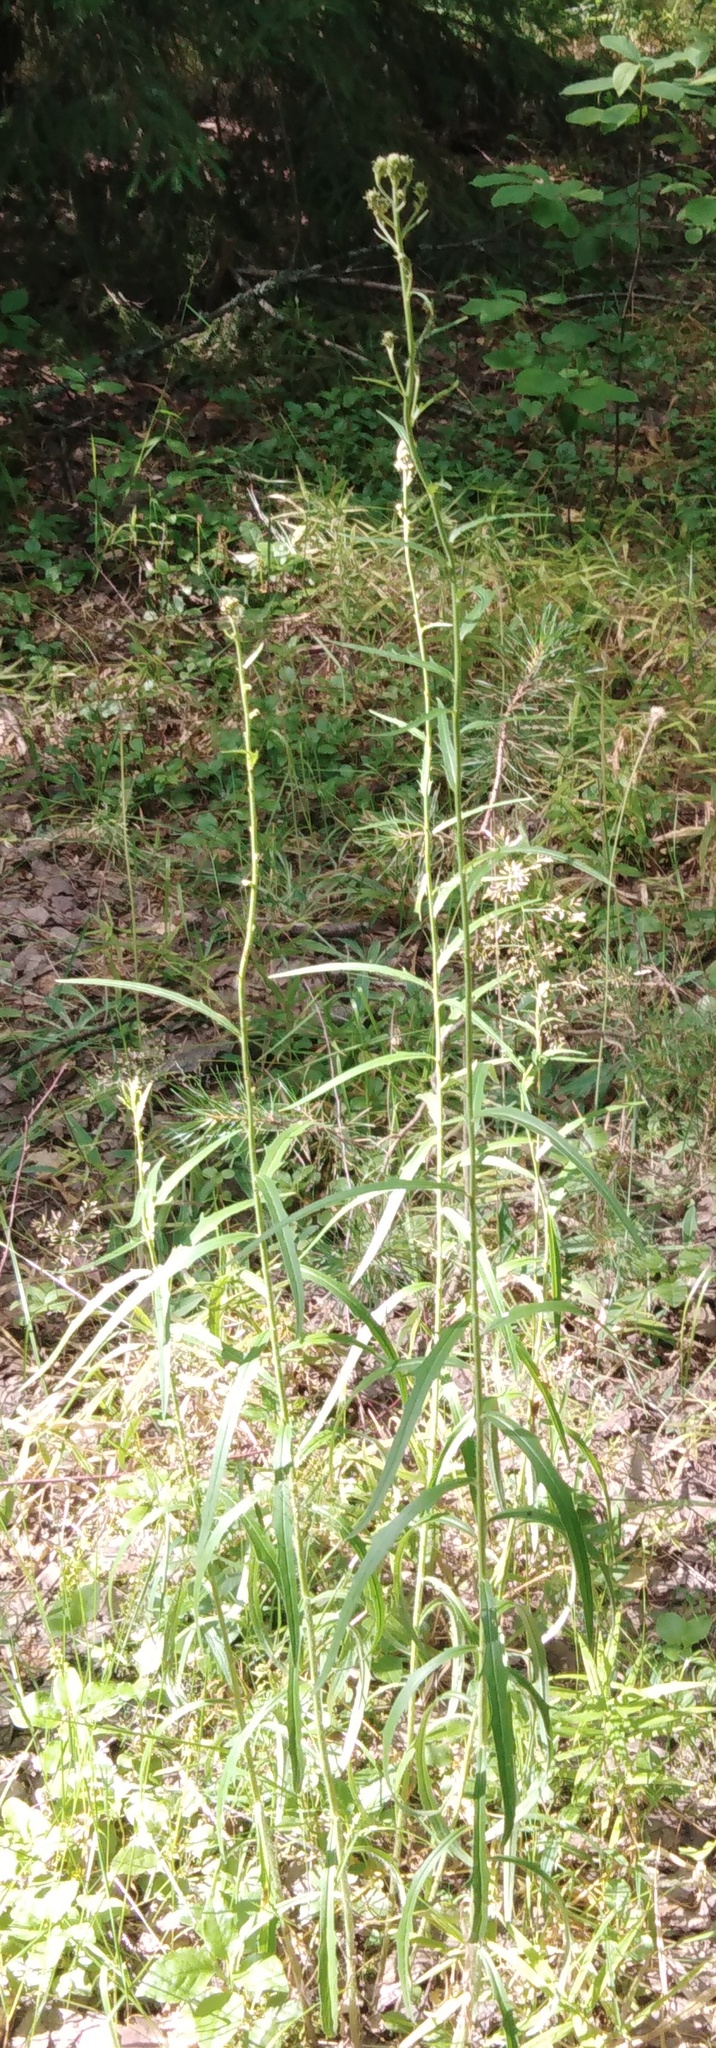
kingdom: Plantae
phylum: Tracheophyta
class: Magnoliopsida
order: Asterales
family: Asteraceae
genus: Hieracium
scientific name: Hieracium umbellatum
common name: Northern hawkweed
